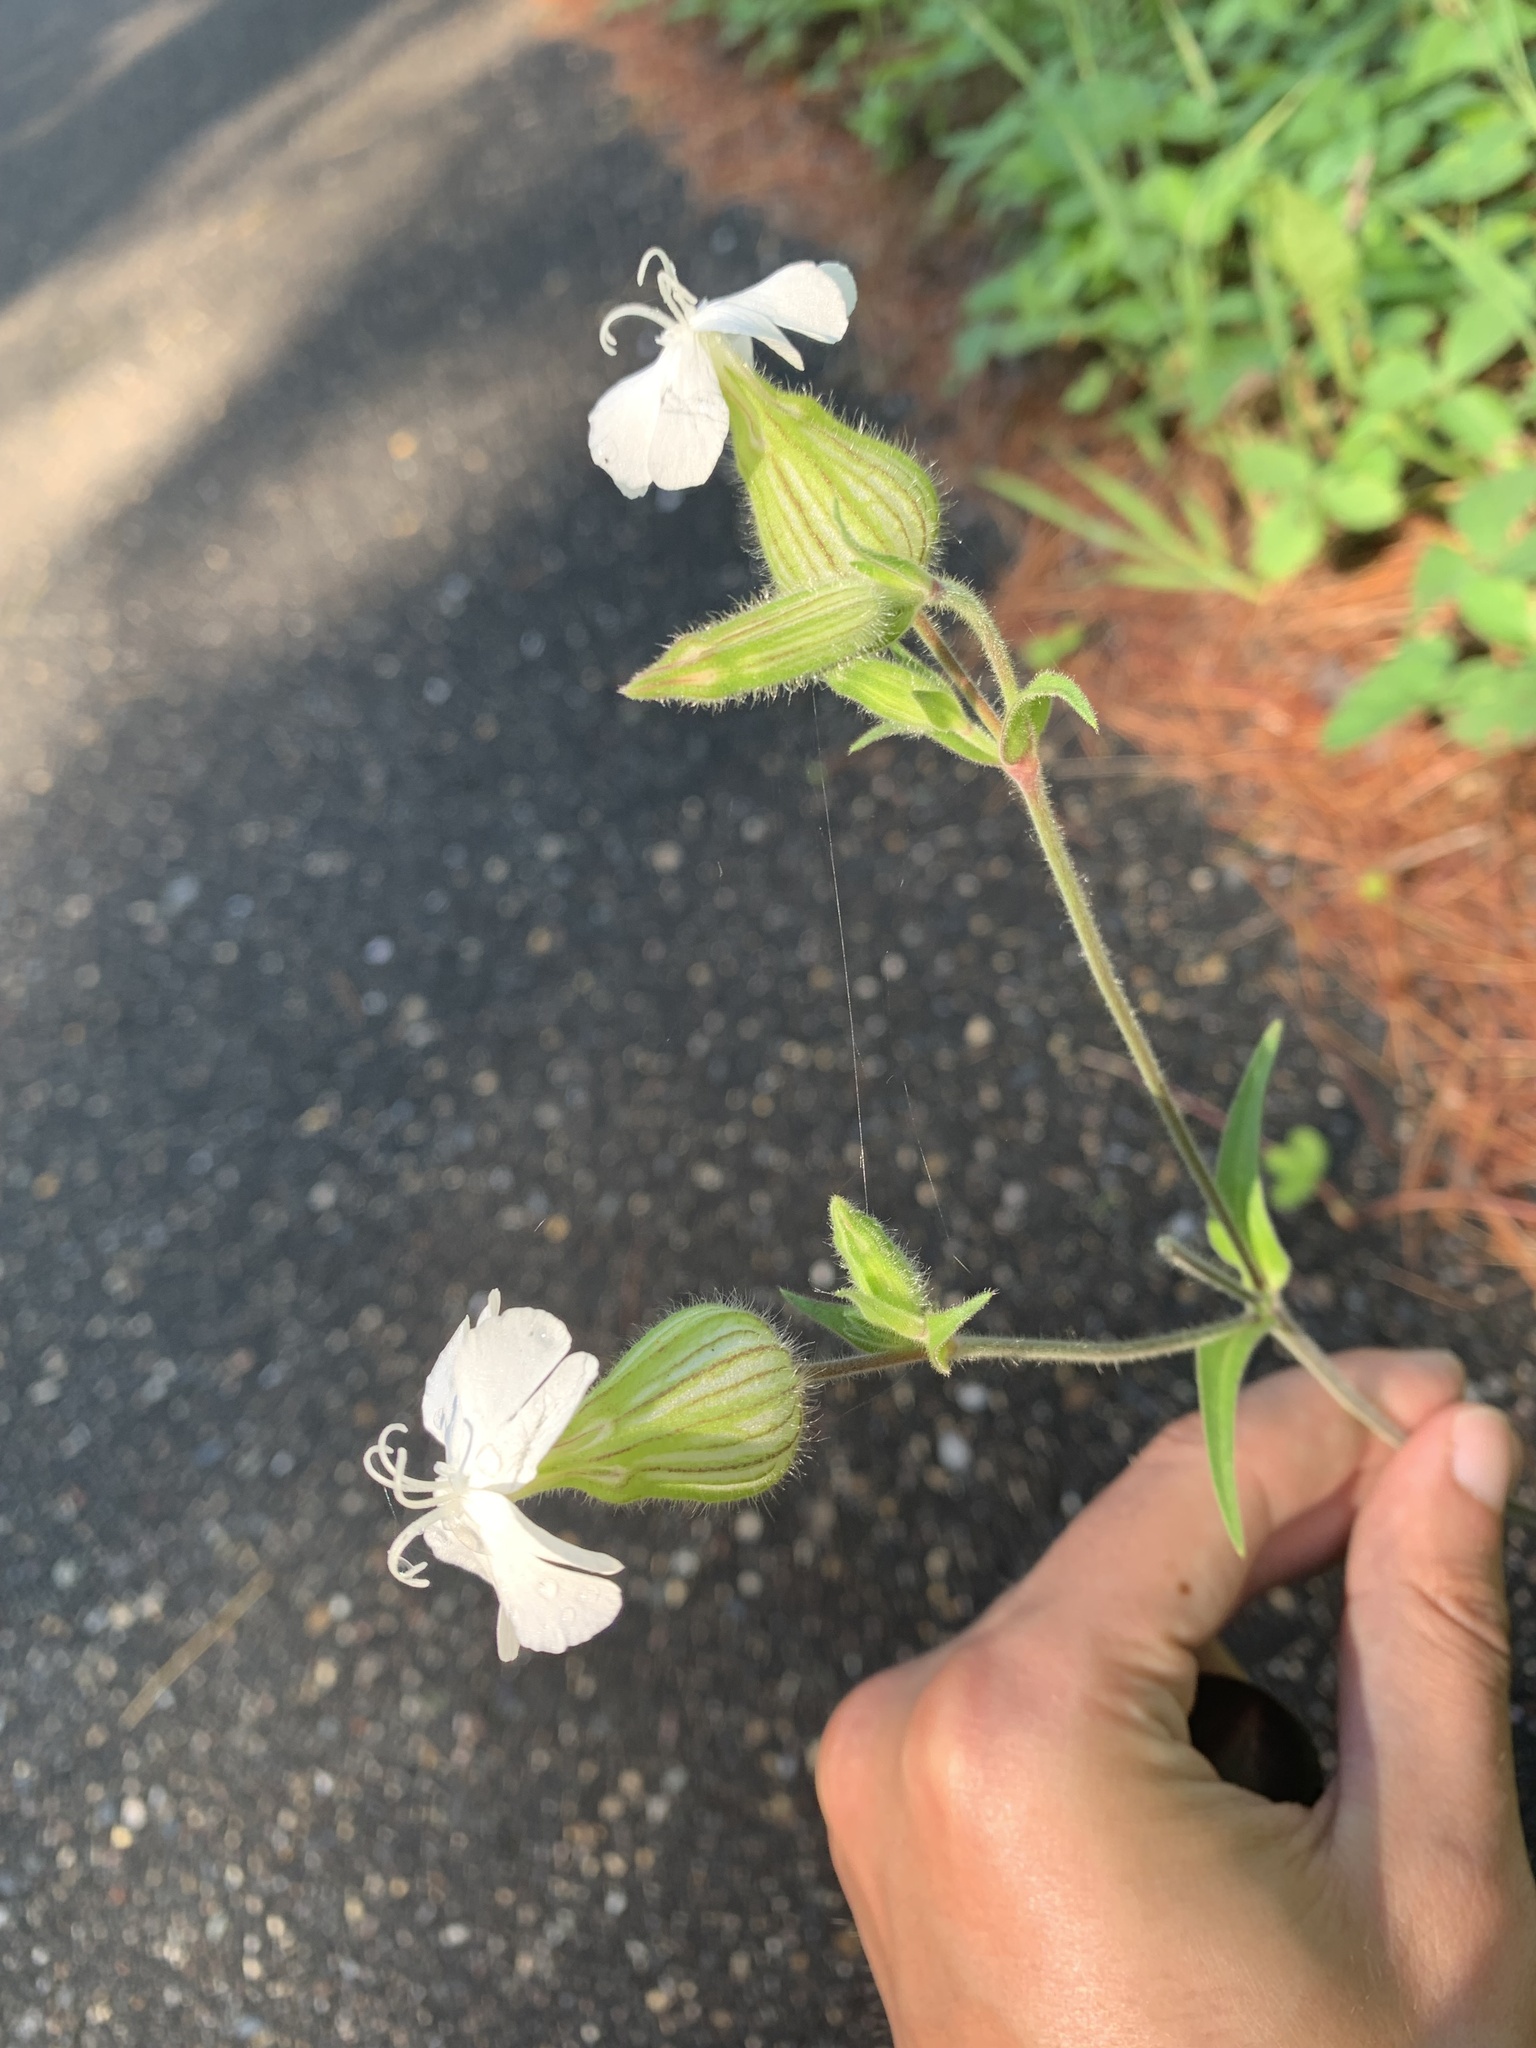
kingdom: Plantae
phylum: Tracheophyta
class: Magnoliopsida
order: Caryophyllales
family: Caryophyllaceae
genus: Silene
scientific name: Silene latifolia
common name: White campion
